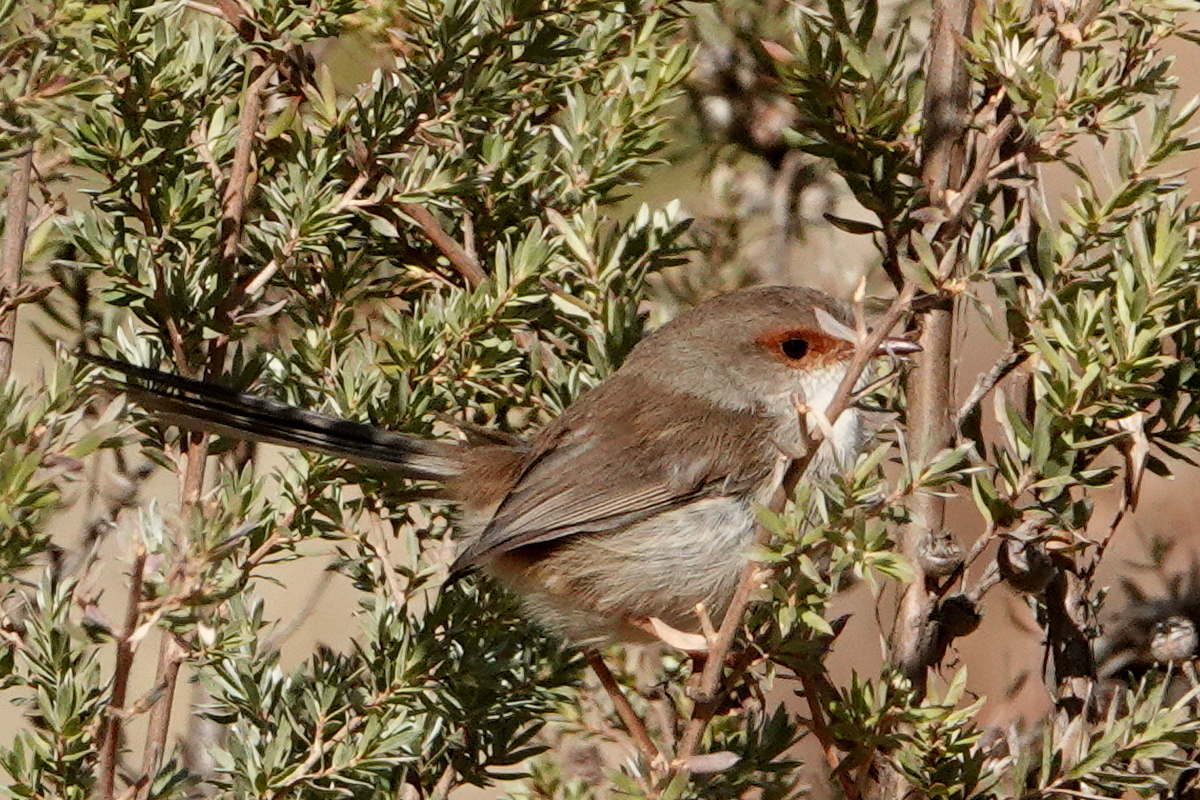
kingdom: Animalia
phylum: Chordata
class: Aves
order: Passeriformes
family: Maluridae
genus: Malurus
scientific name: Malurus cyaneus
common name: Superb fairywren
